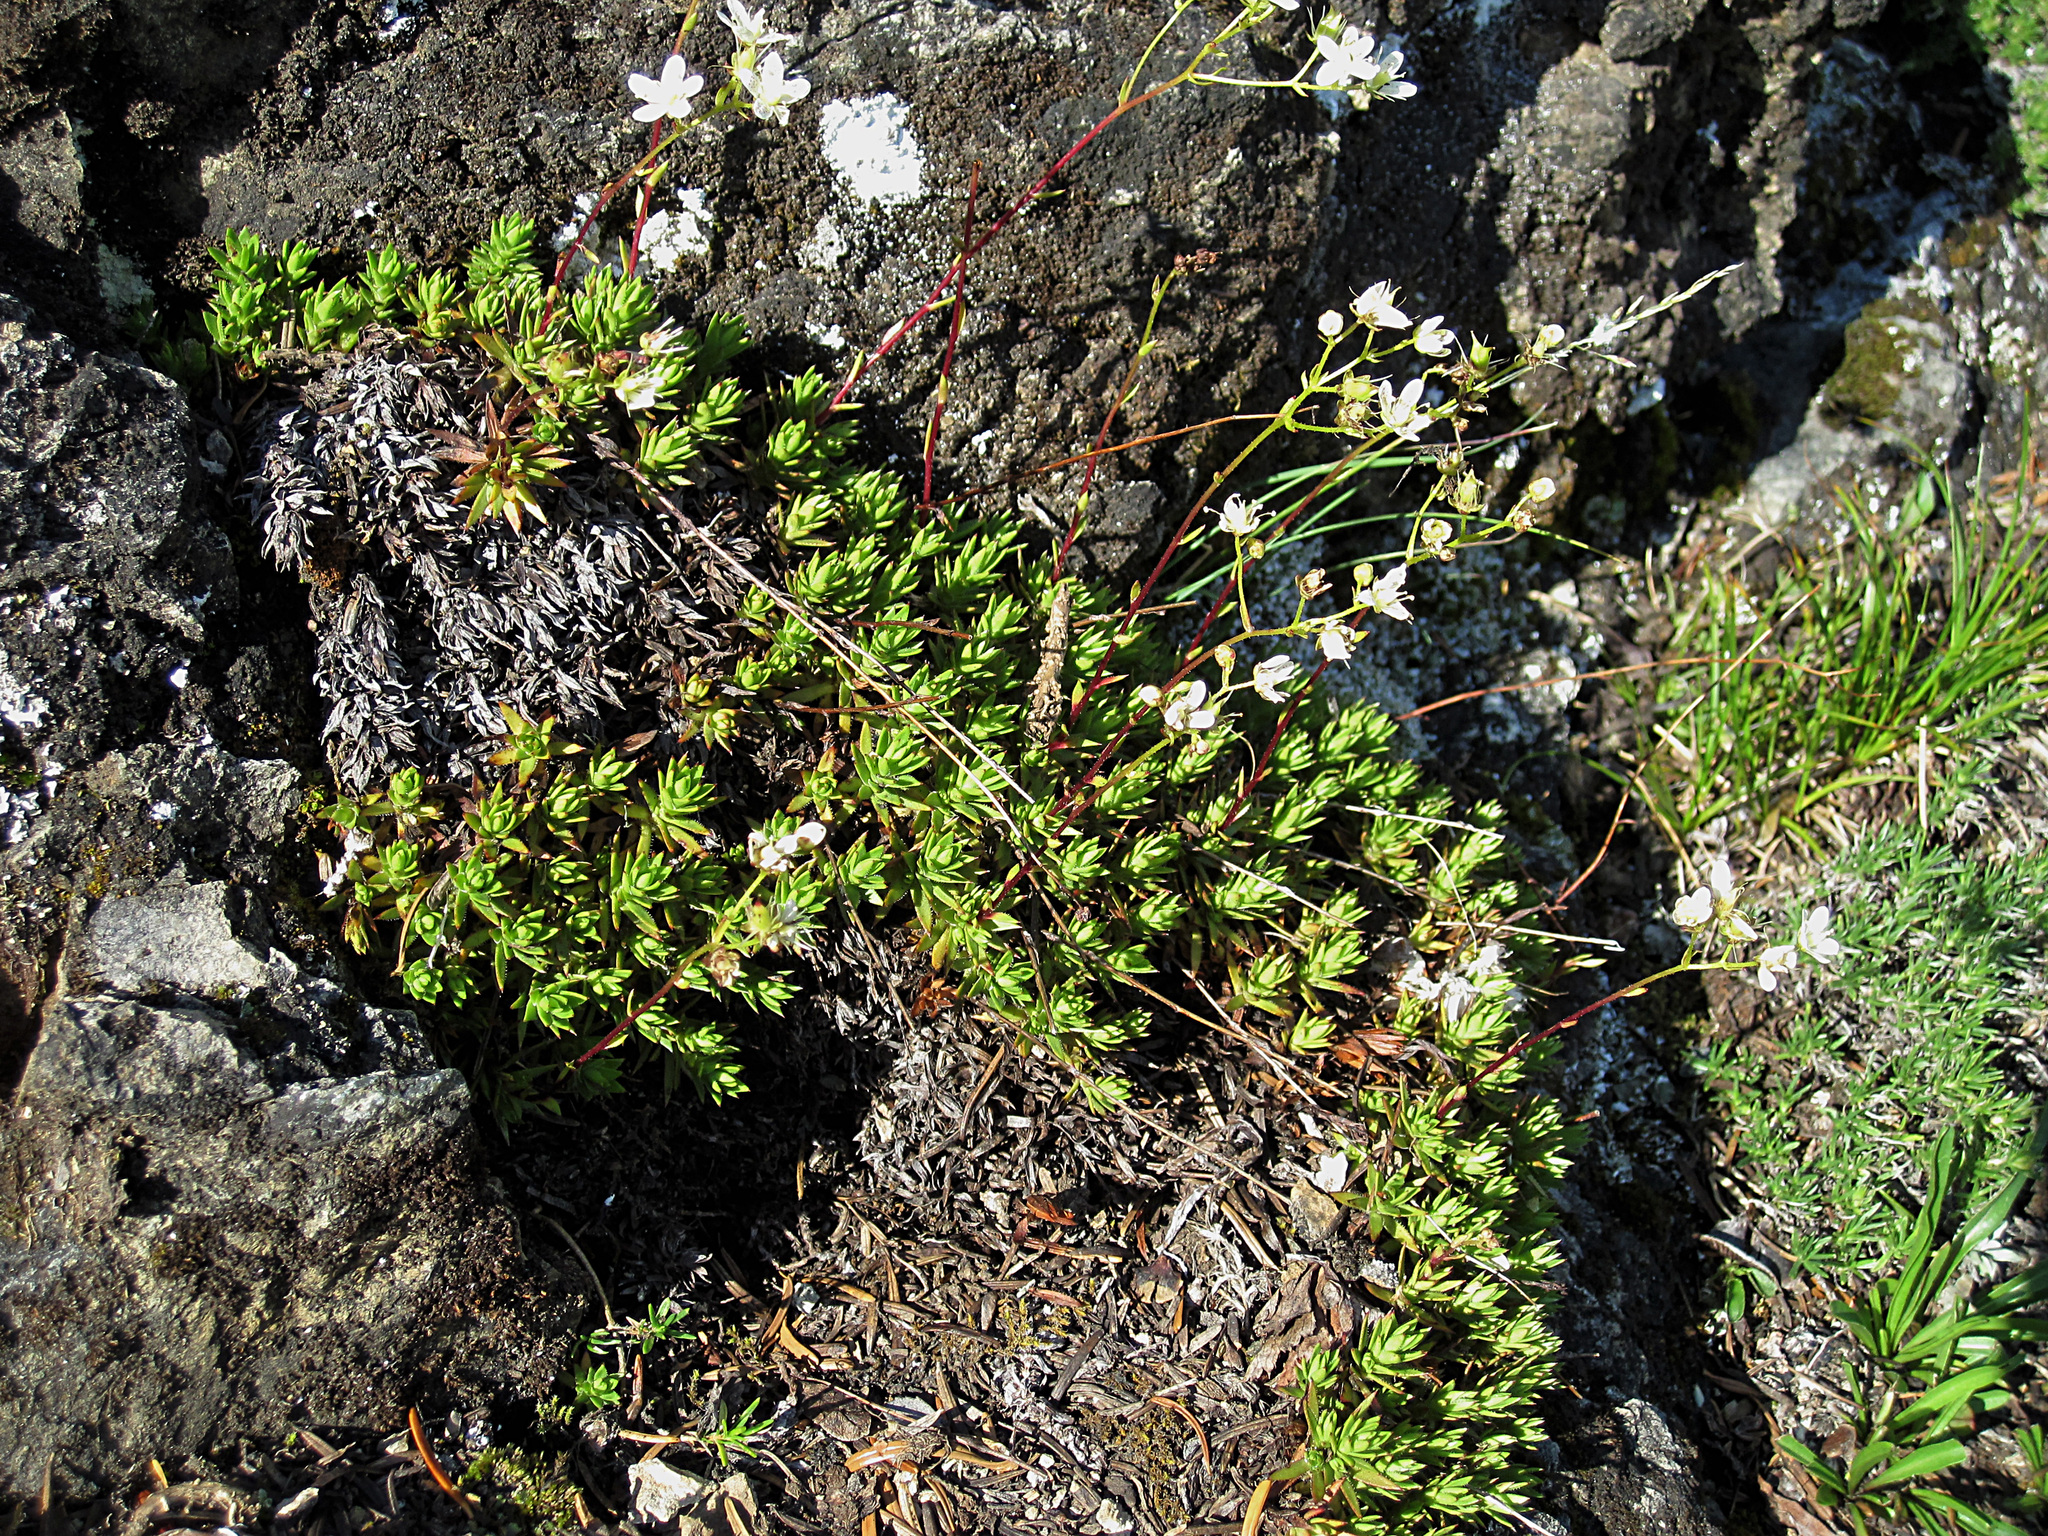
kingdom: Plantae
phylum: Tracheophyta
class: Magnoliopsida
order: Saxifragales
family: Saxifragaceae
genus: Saxifraga
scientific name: Saxifraga bronchialis
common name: Matted saxifrage
